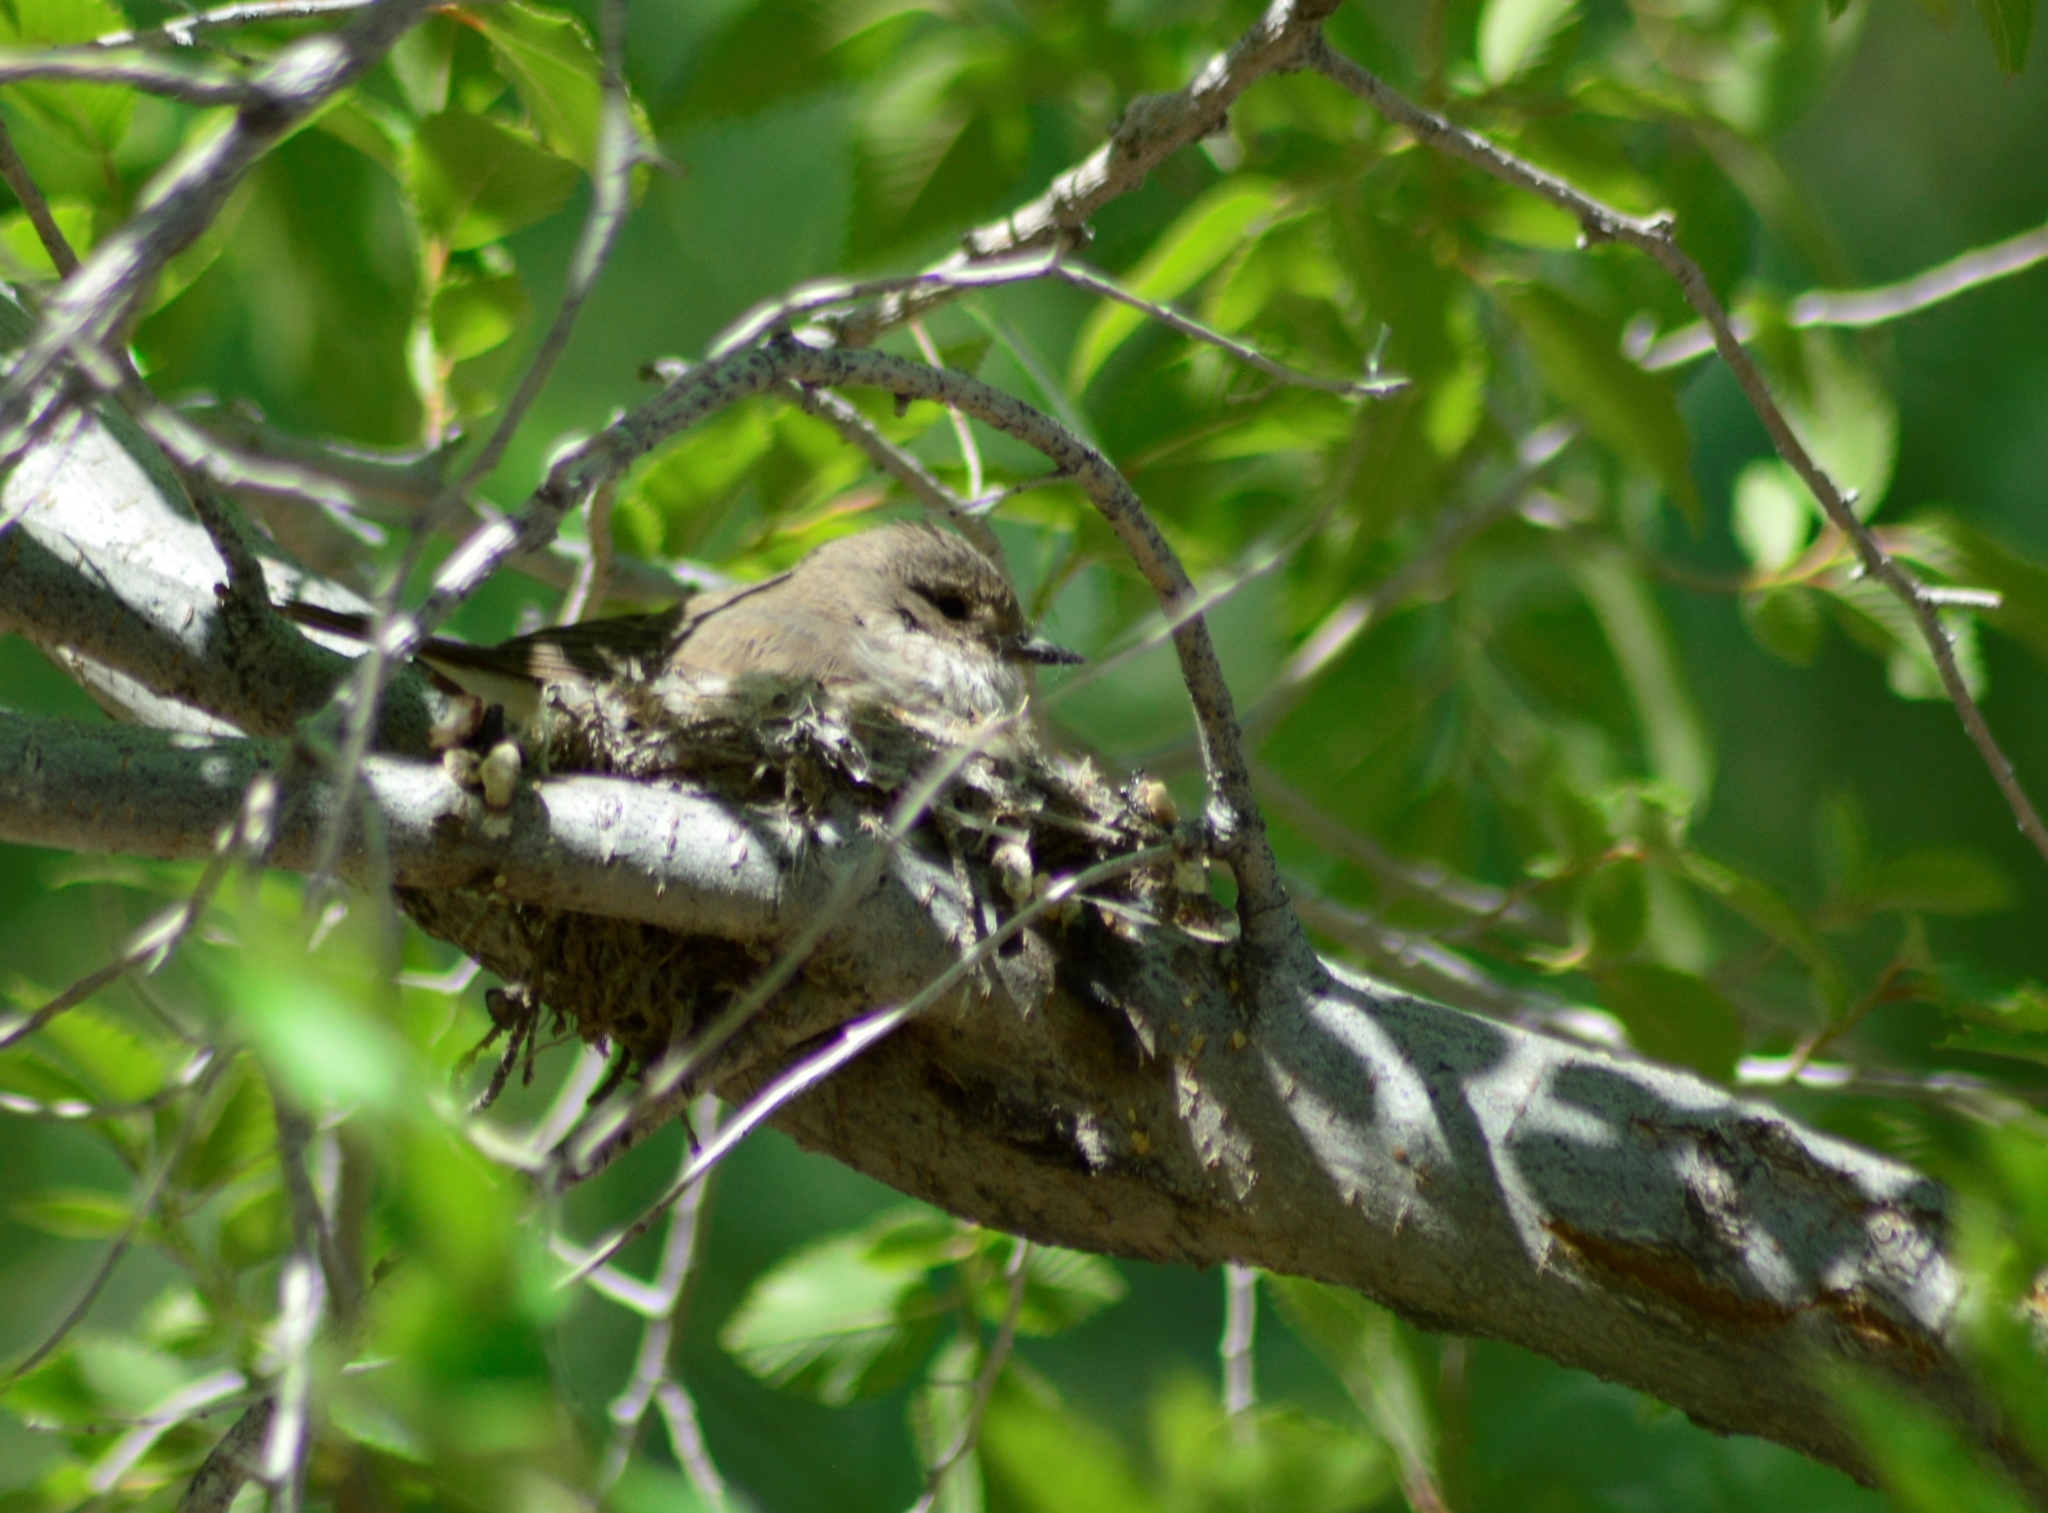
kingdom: Animalia
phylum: Chordata
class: Aves
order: Passeriformes
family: Tyrannidae
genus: Pyrocephalus
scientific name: Pyrocephalus rubinus
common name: Vermilion flycatcher
